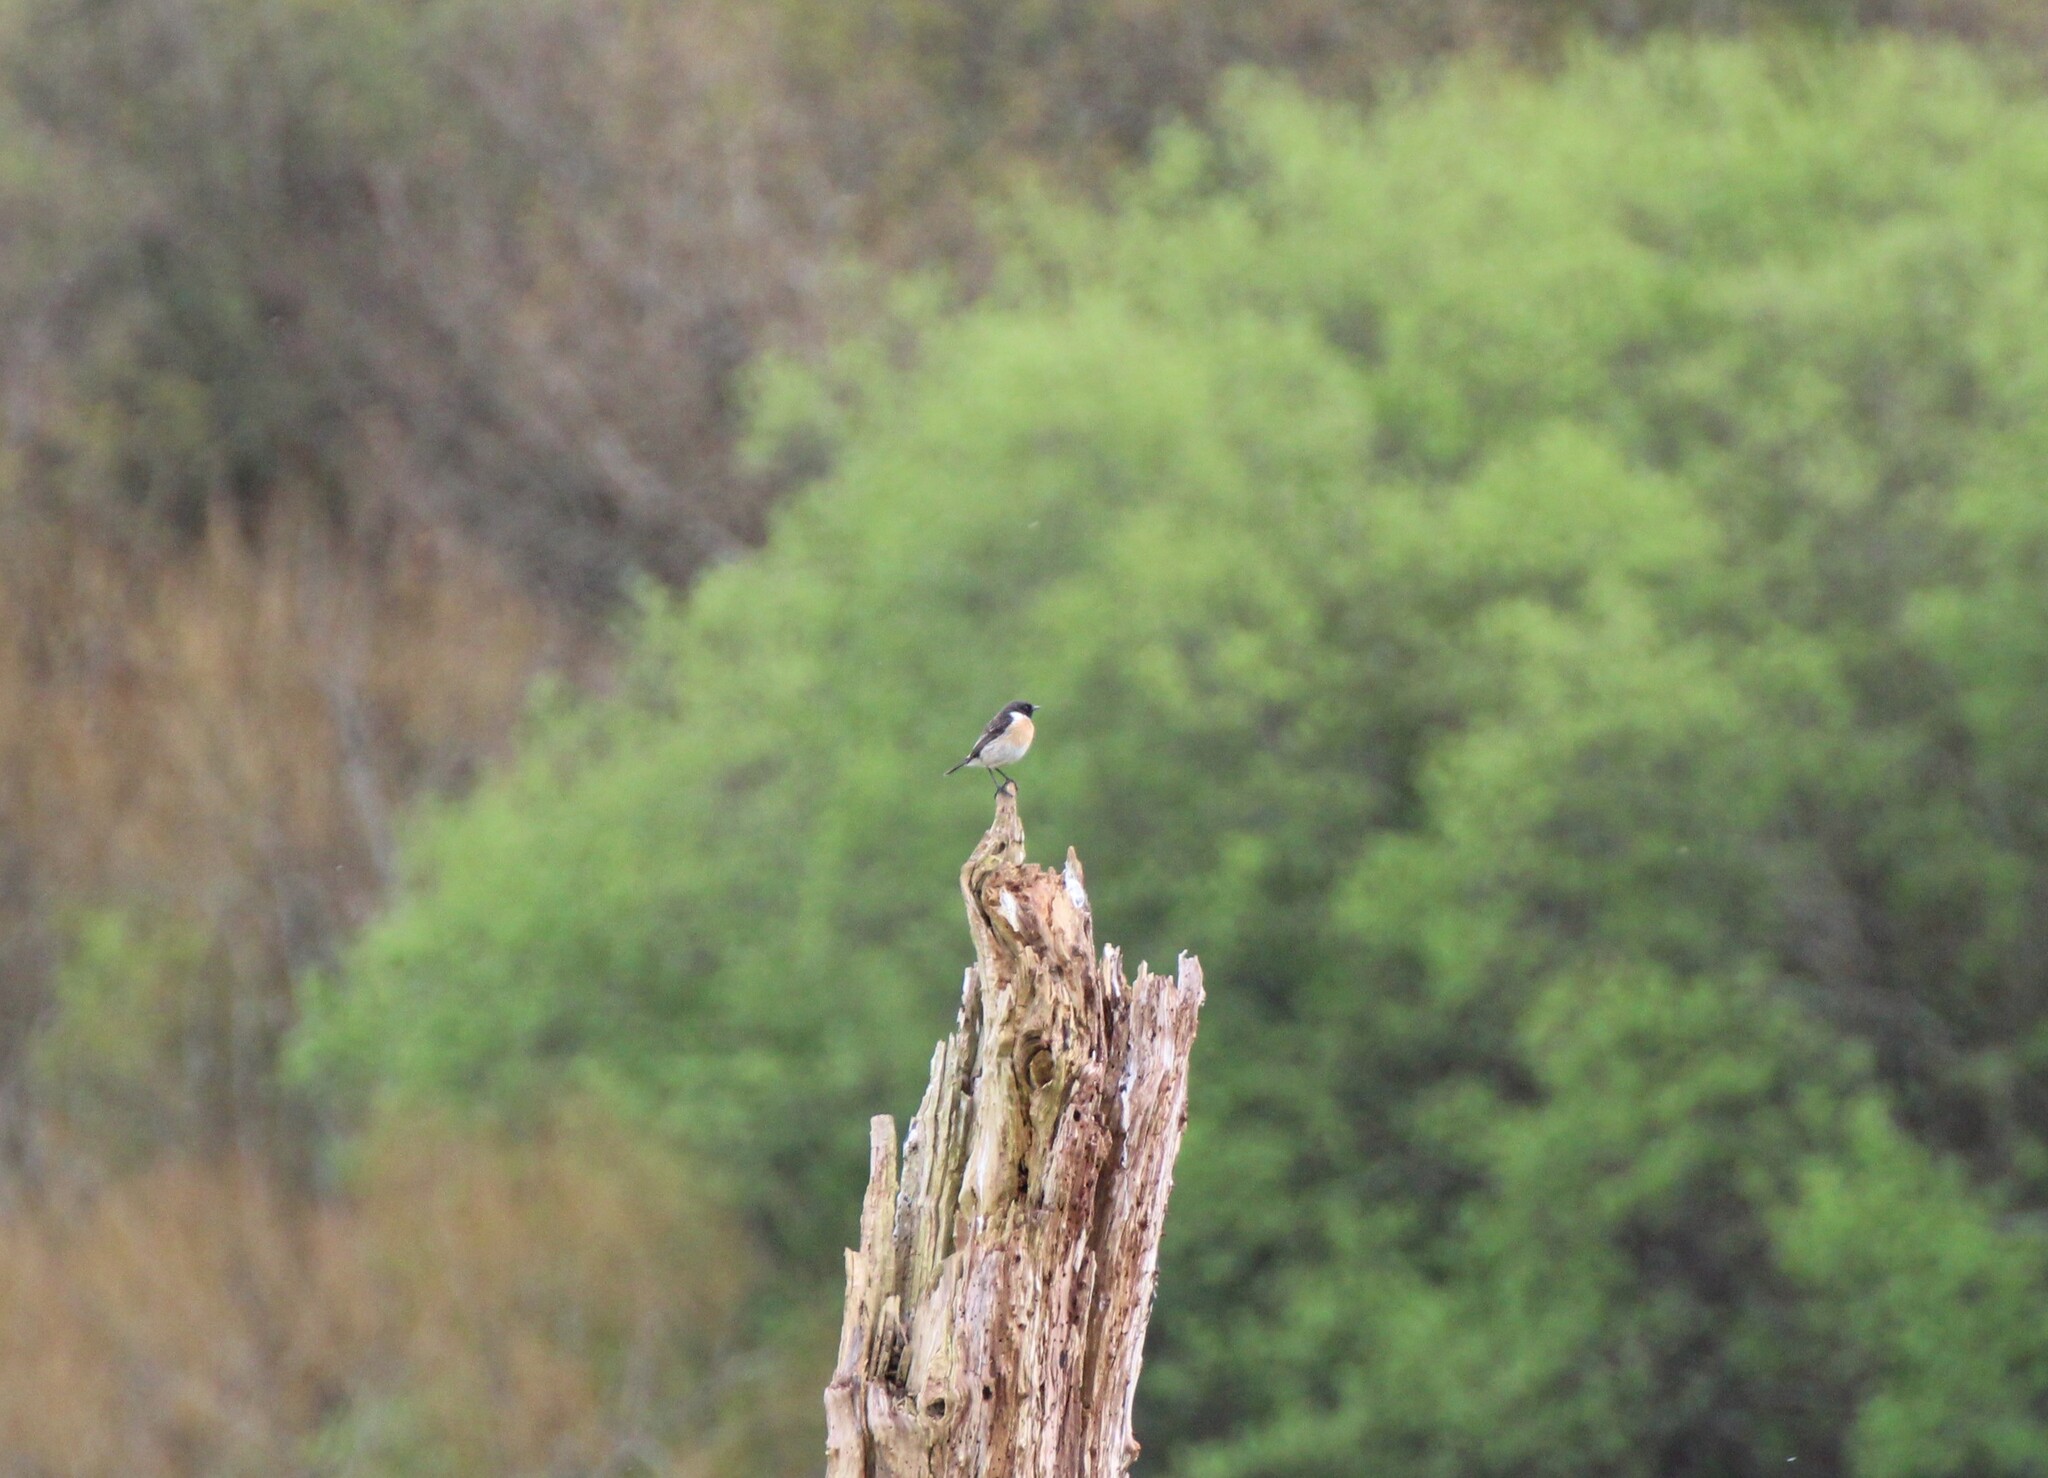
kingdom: Animalia
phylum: Chordata
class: Aves
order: Passeriformes
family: Muscicapidae
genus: Saxicola
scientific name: Saxicola rubicola
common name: European stonechat
